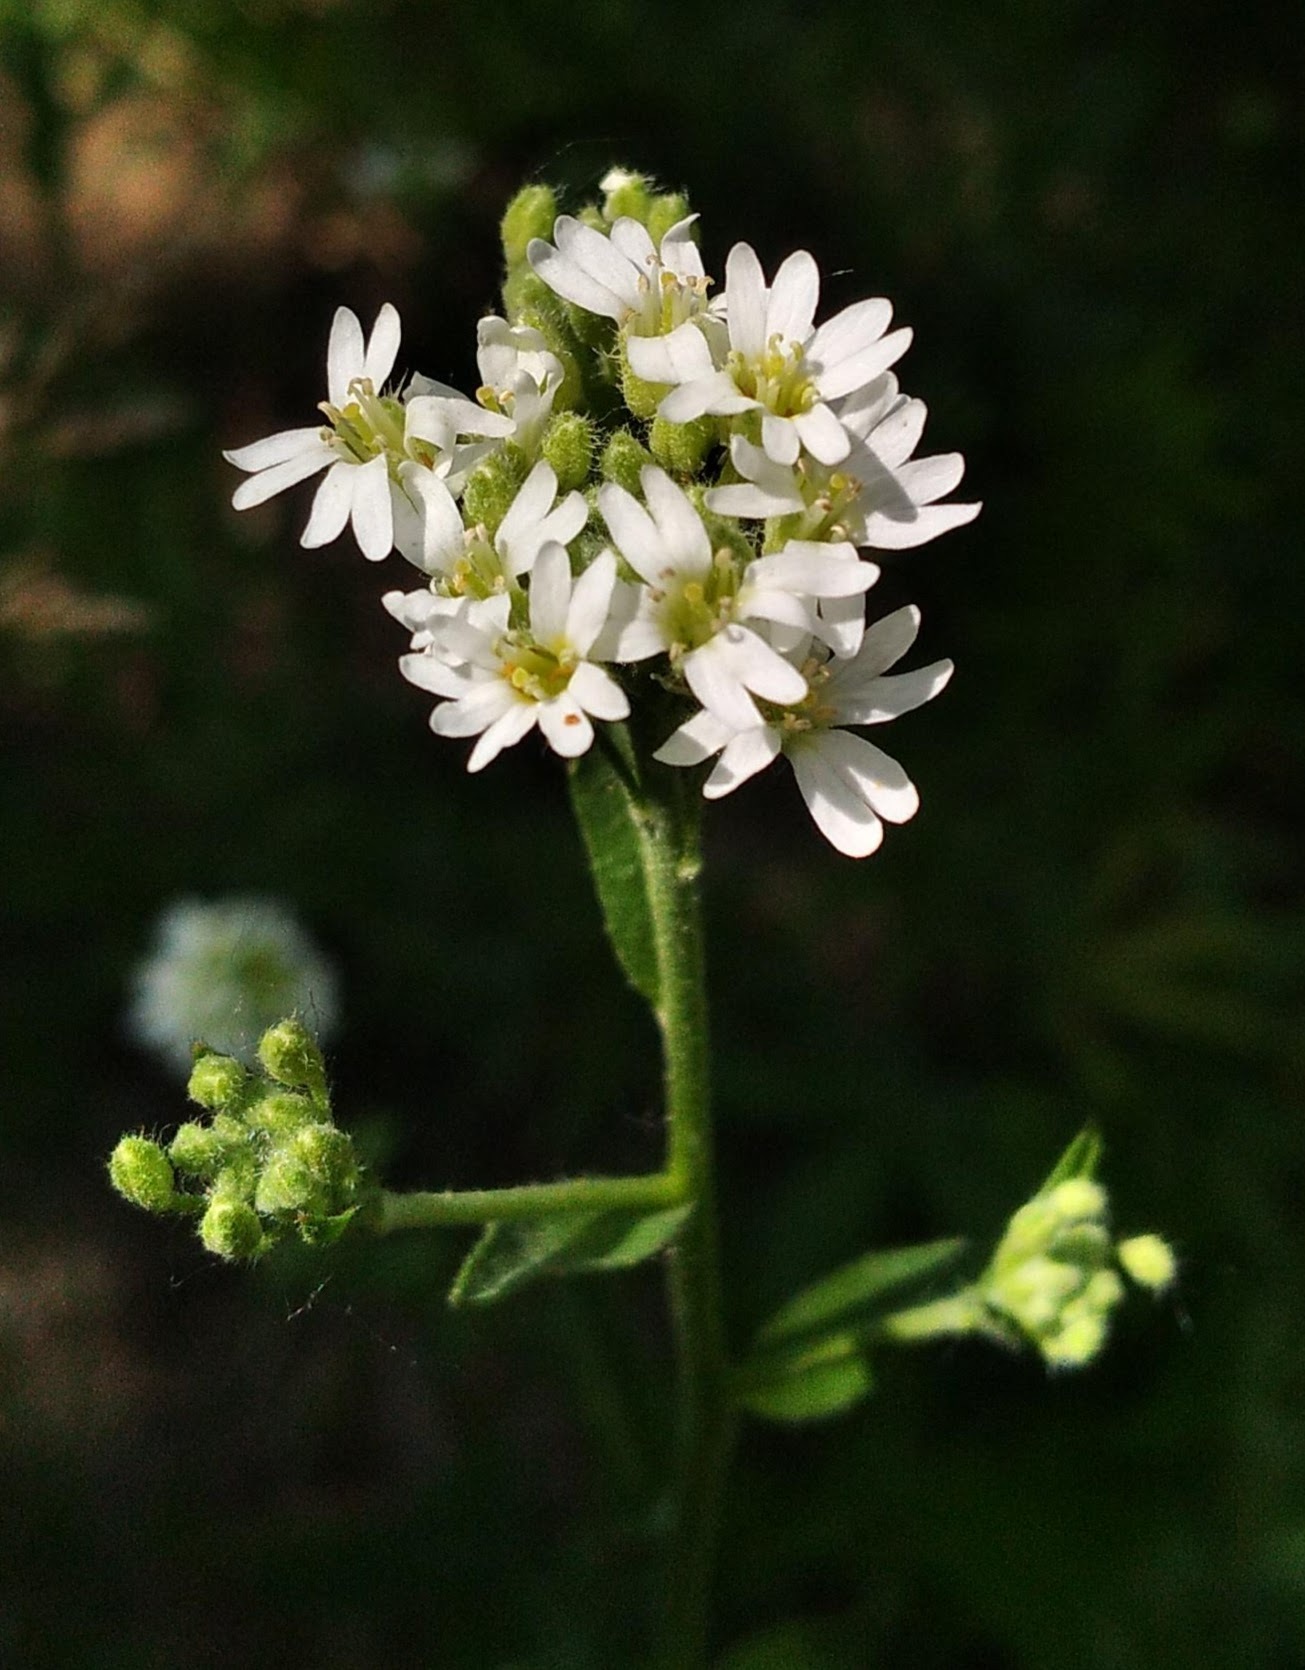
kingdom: Plantae
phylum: Tracheophyta
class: Magnoliopsida
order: Brassicales
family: Brassicaceae
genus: Berteroa
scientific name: Berteroa incana
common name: Hoary alison
